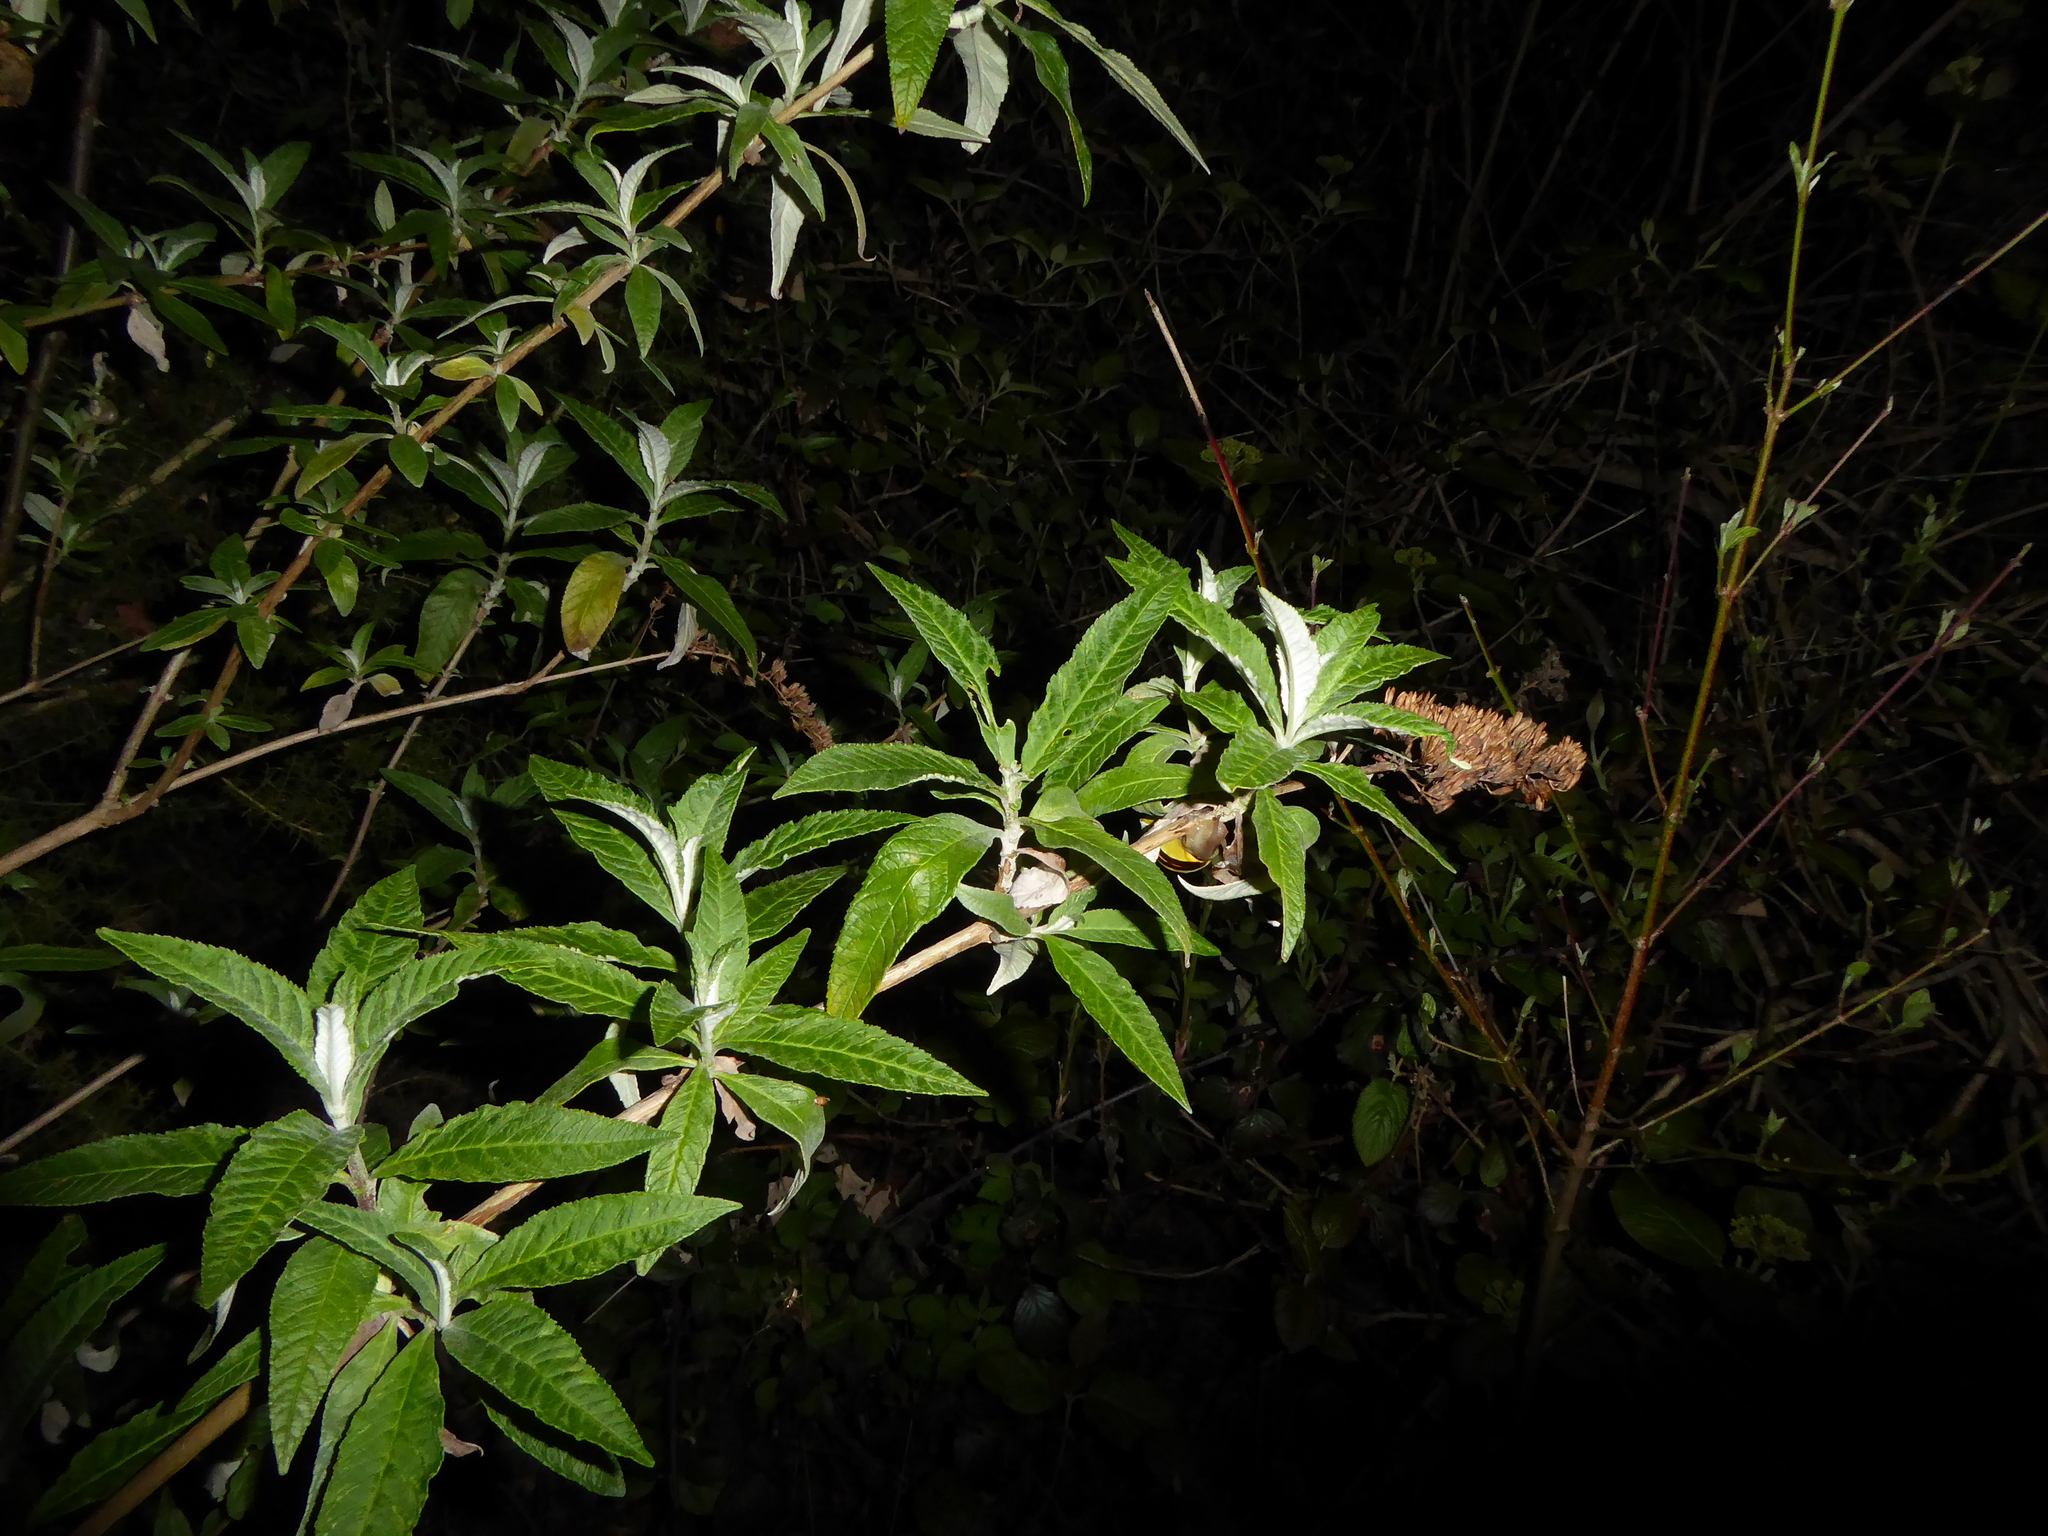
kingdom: Plantae
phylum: Tracheophyta
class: Magnoliopsida
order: Lamiales
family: Scrophulariaceae
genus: Buddleja
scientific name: Buddleja davidii
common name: Butterfly-bush
